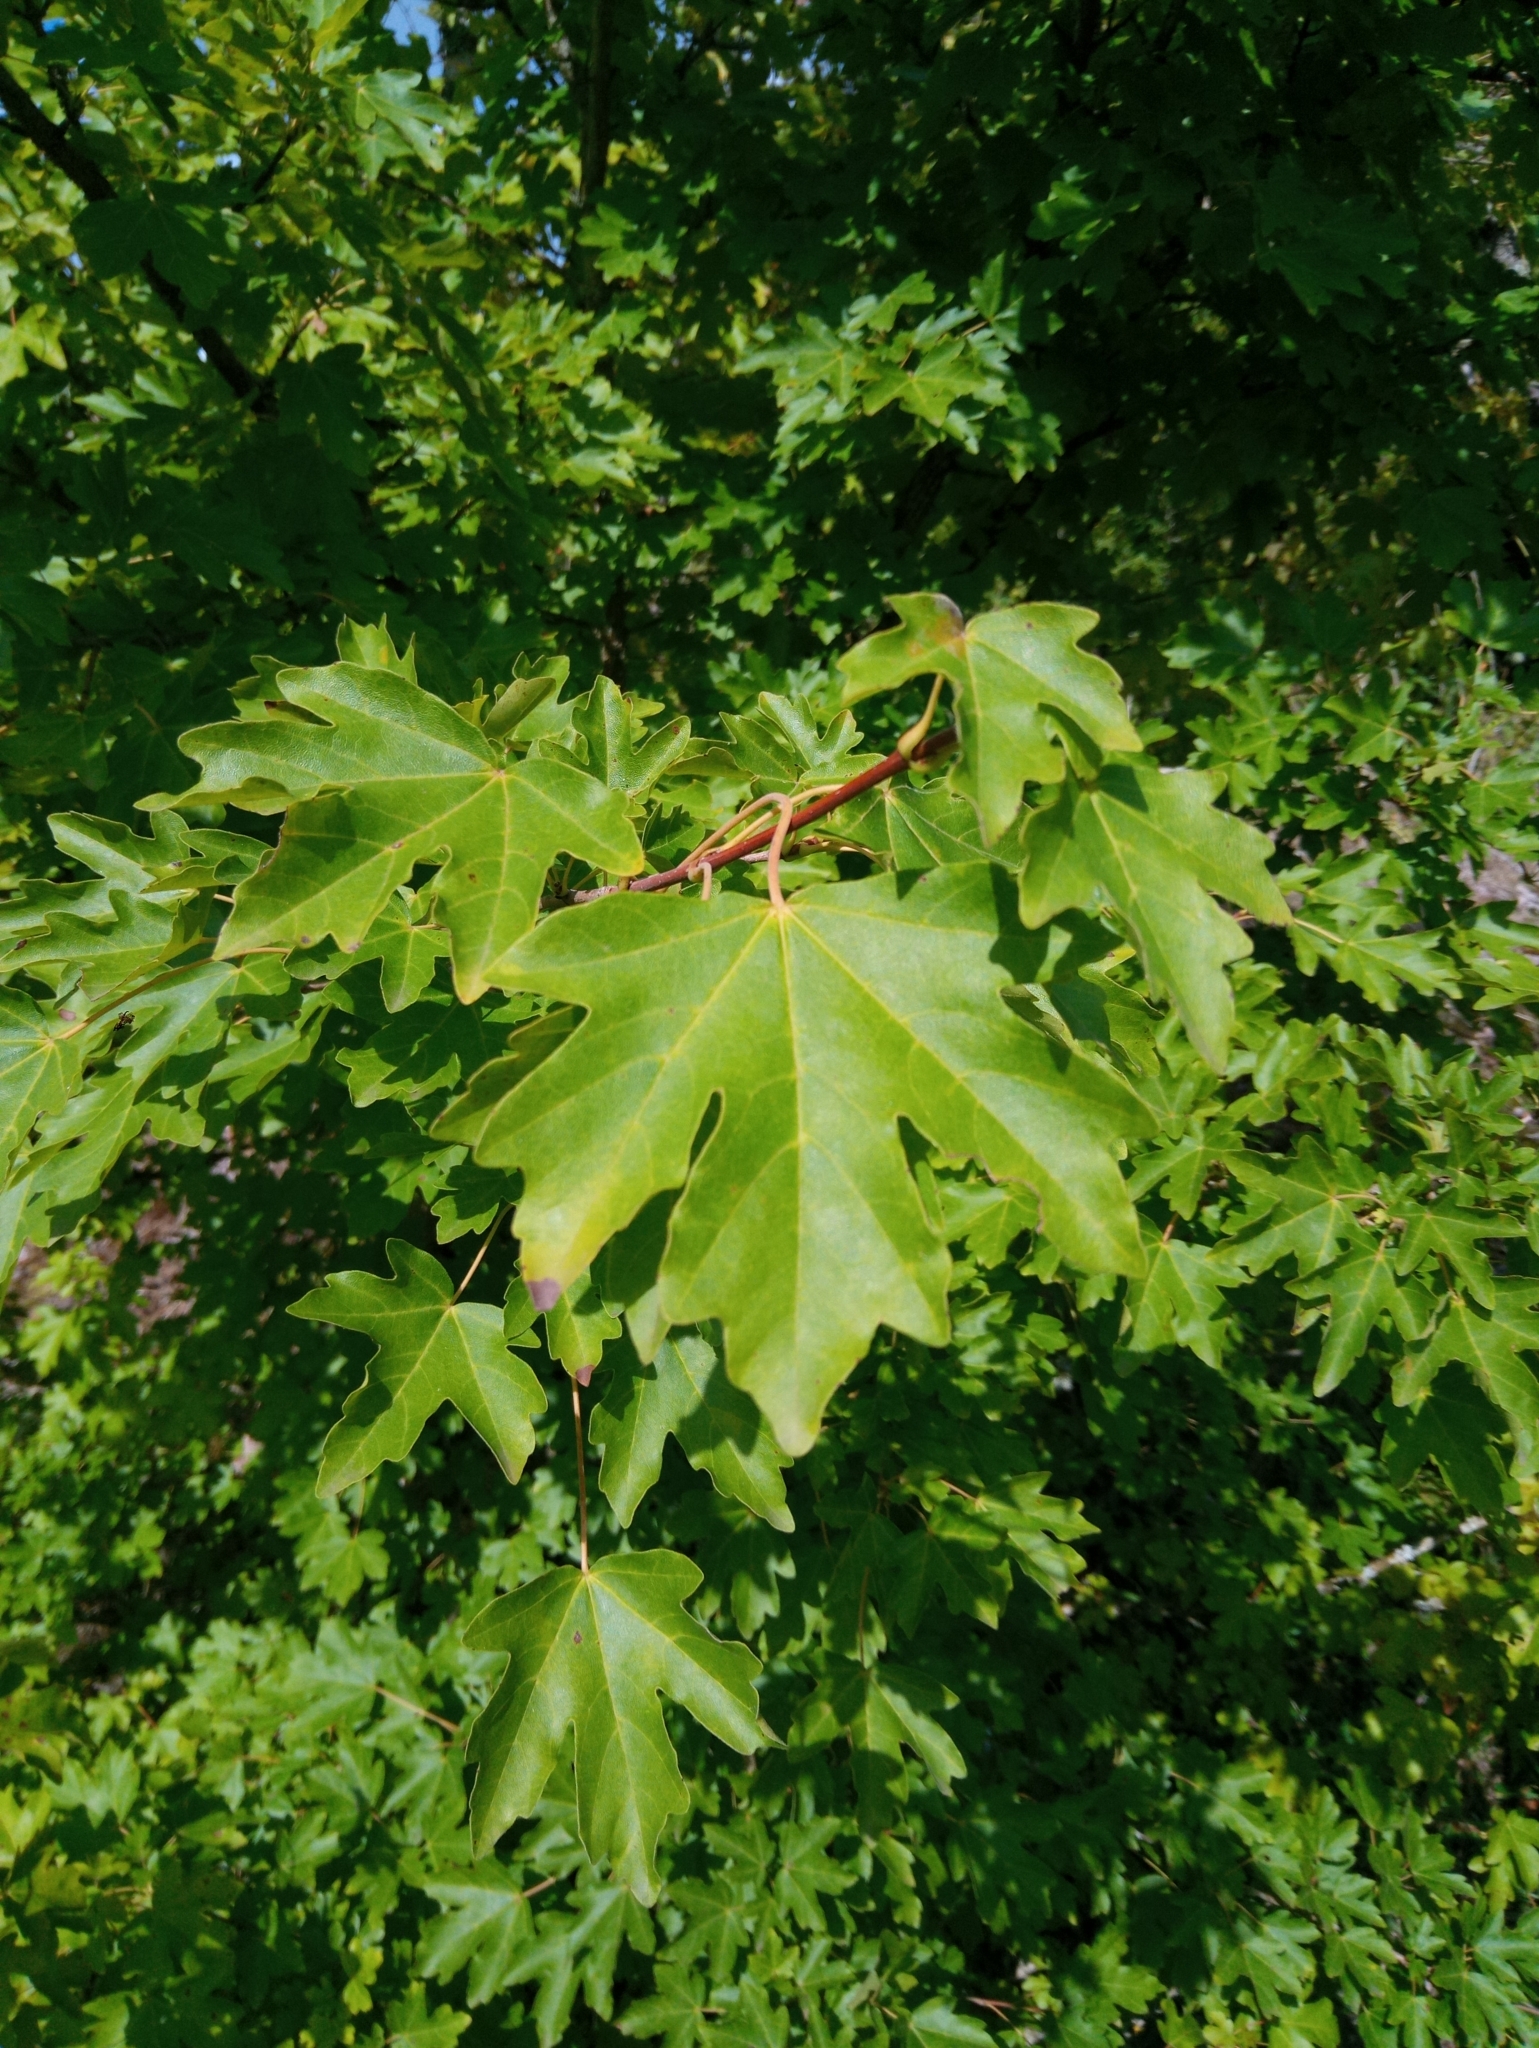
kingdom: Plantae
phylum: Tracheophyta
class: Magnoliopsida
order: Sapindales
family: Sapindaceae
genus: Acer
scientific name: Acer campestre
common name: Field maple
